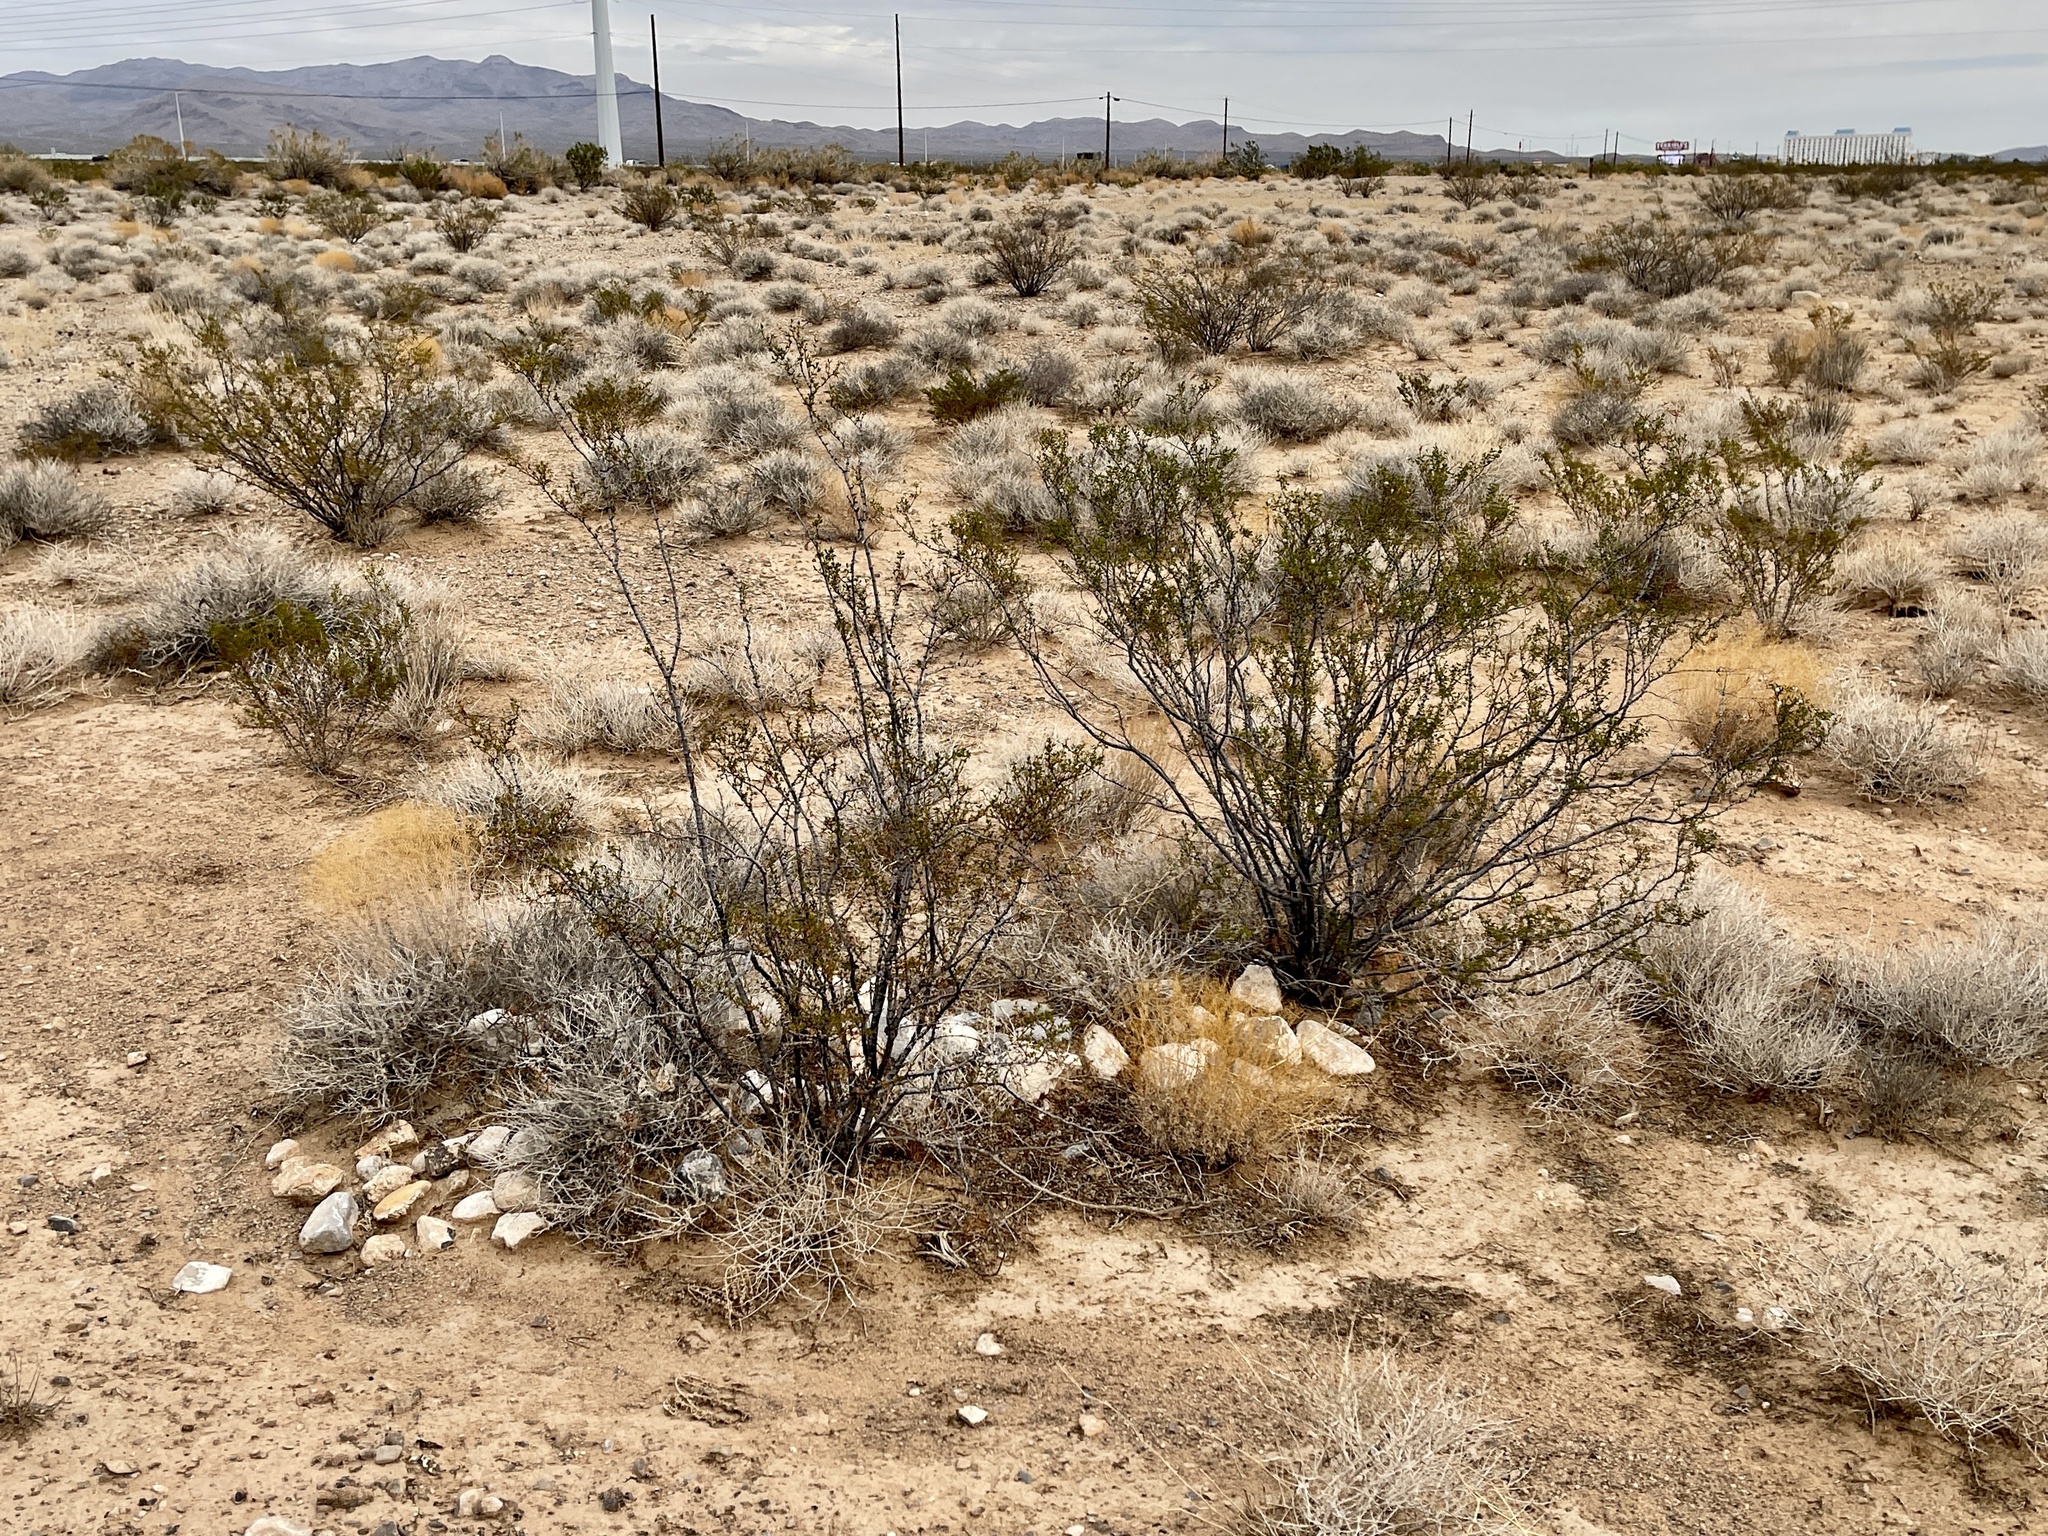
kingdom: Plantae
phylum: Tracheophyta
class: Magnoliopsida
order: Zygophyllales
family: Zygophyllaceae
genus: Larrea
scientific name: Larrea tridentata
